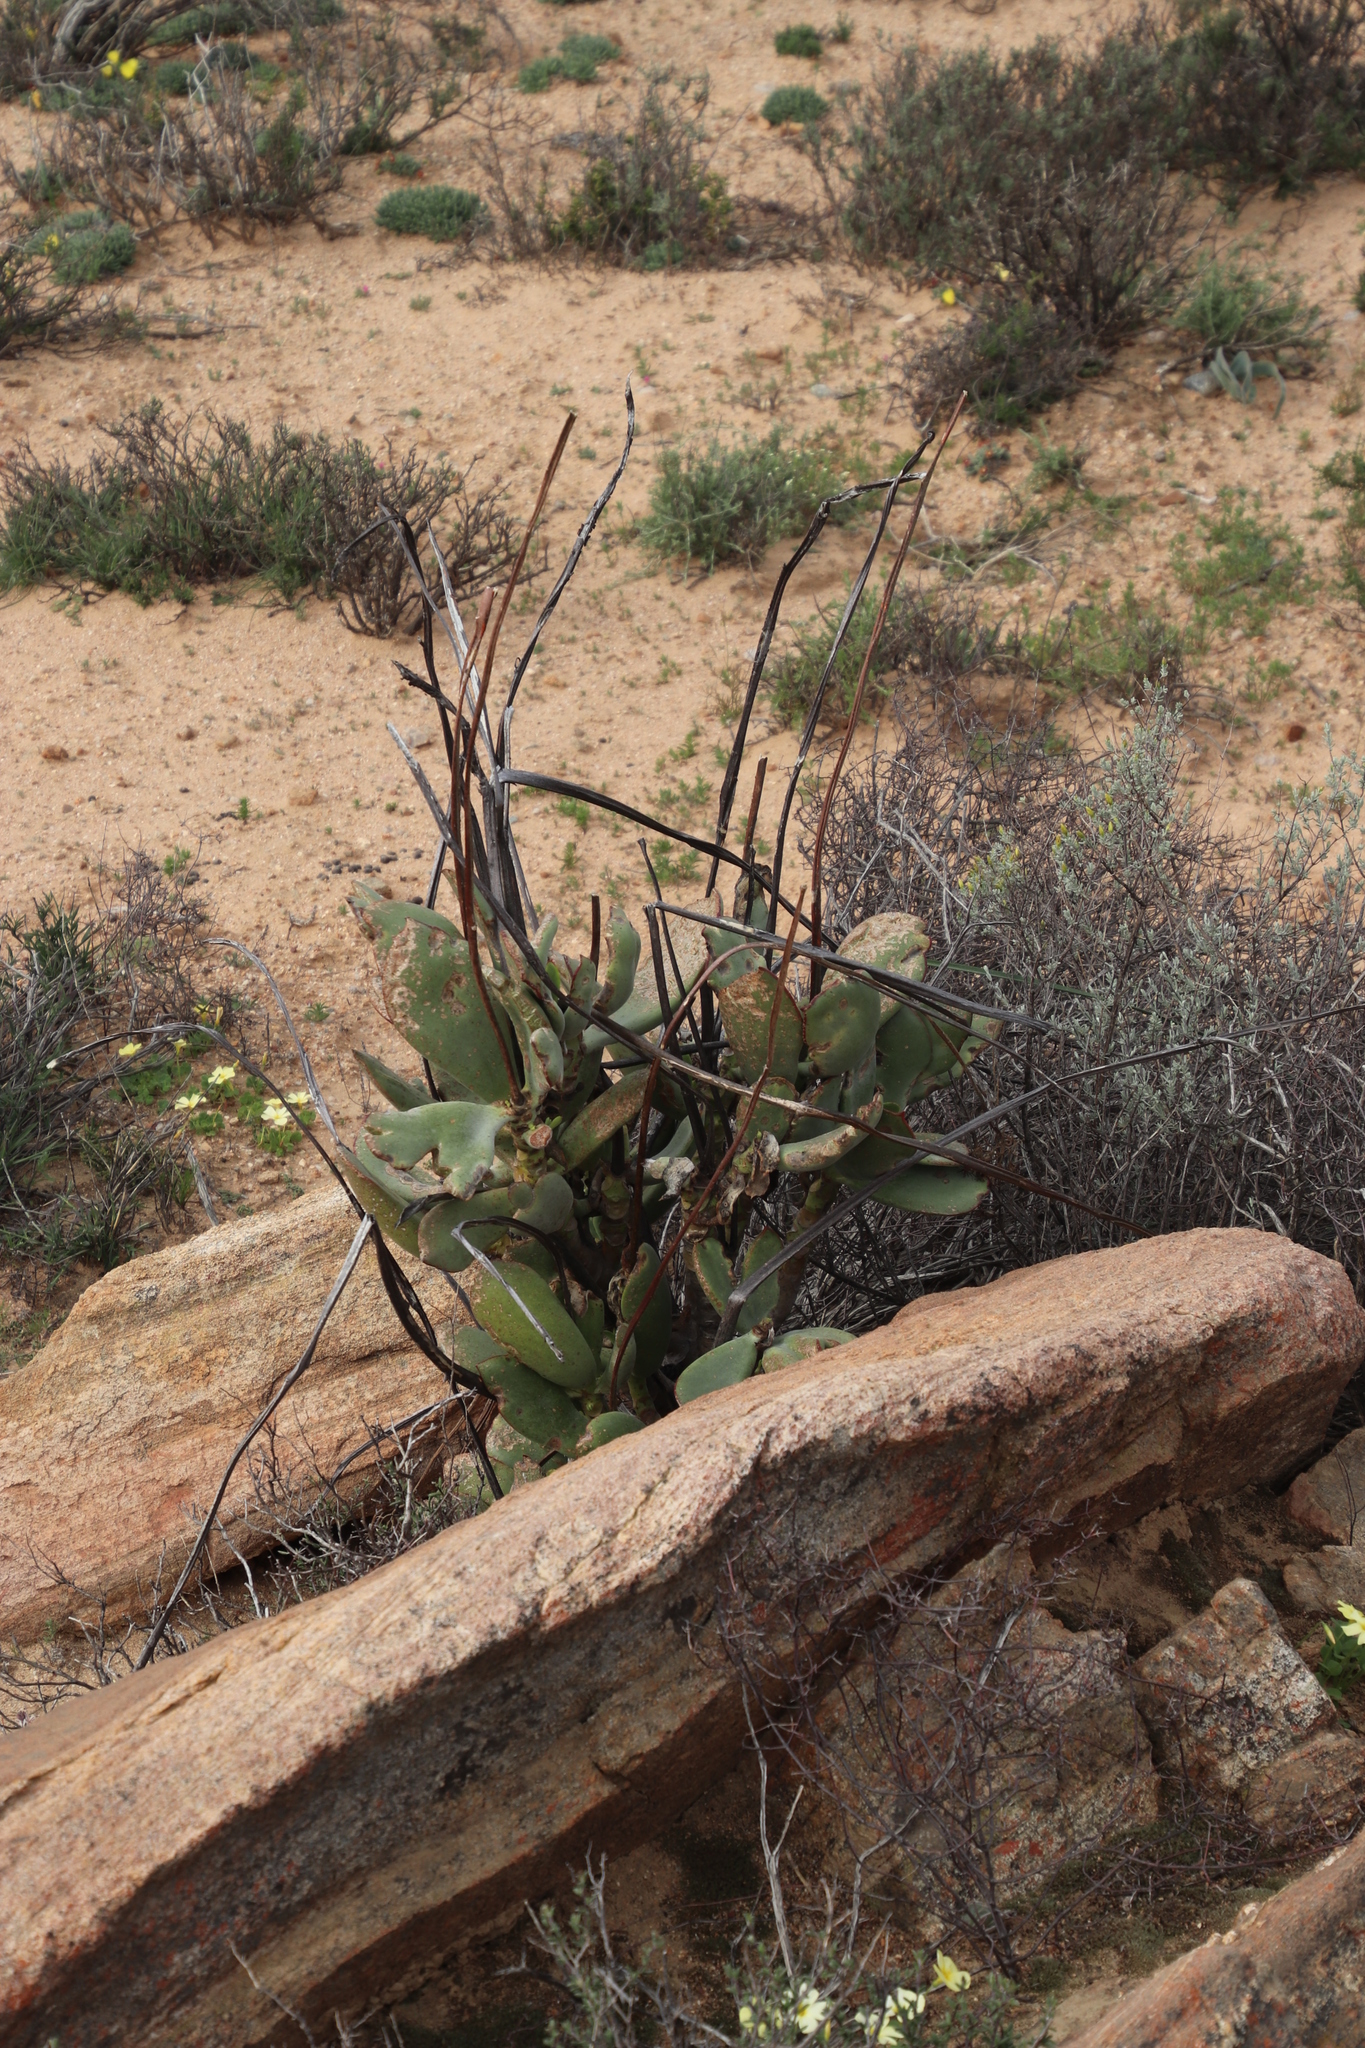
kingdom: Plantae
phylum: Tracheophyta
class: Magnoliopsida
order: Saxifragales
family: Crassulaceae
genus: Cotyledon
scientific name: Cotyledon orbiculata
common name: Pig's ear
